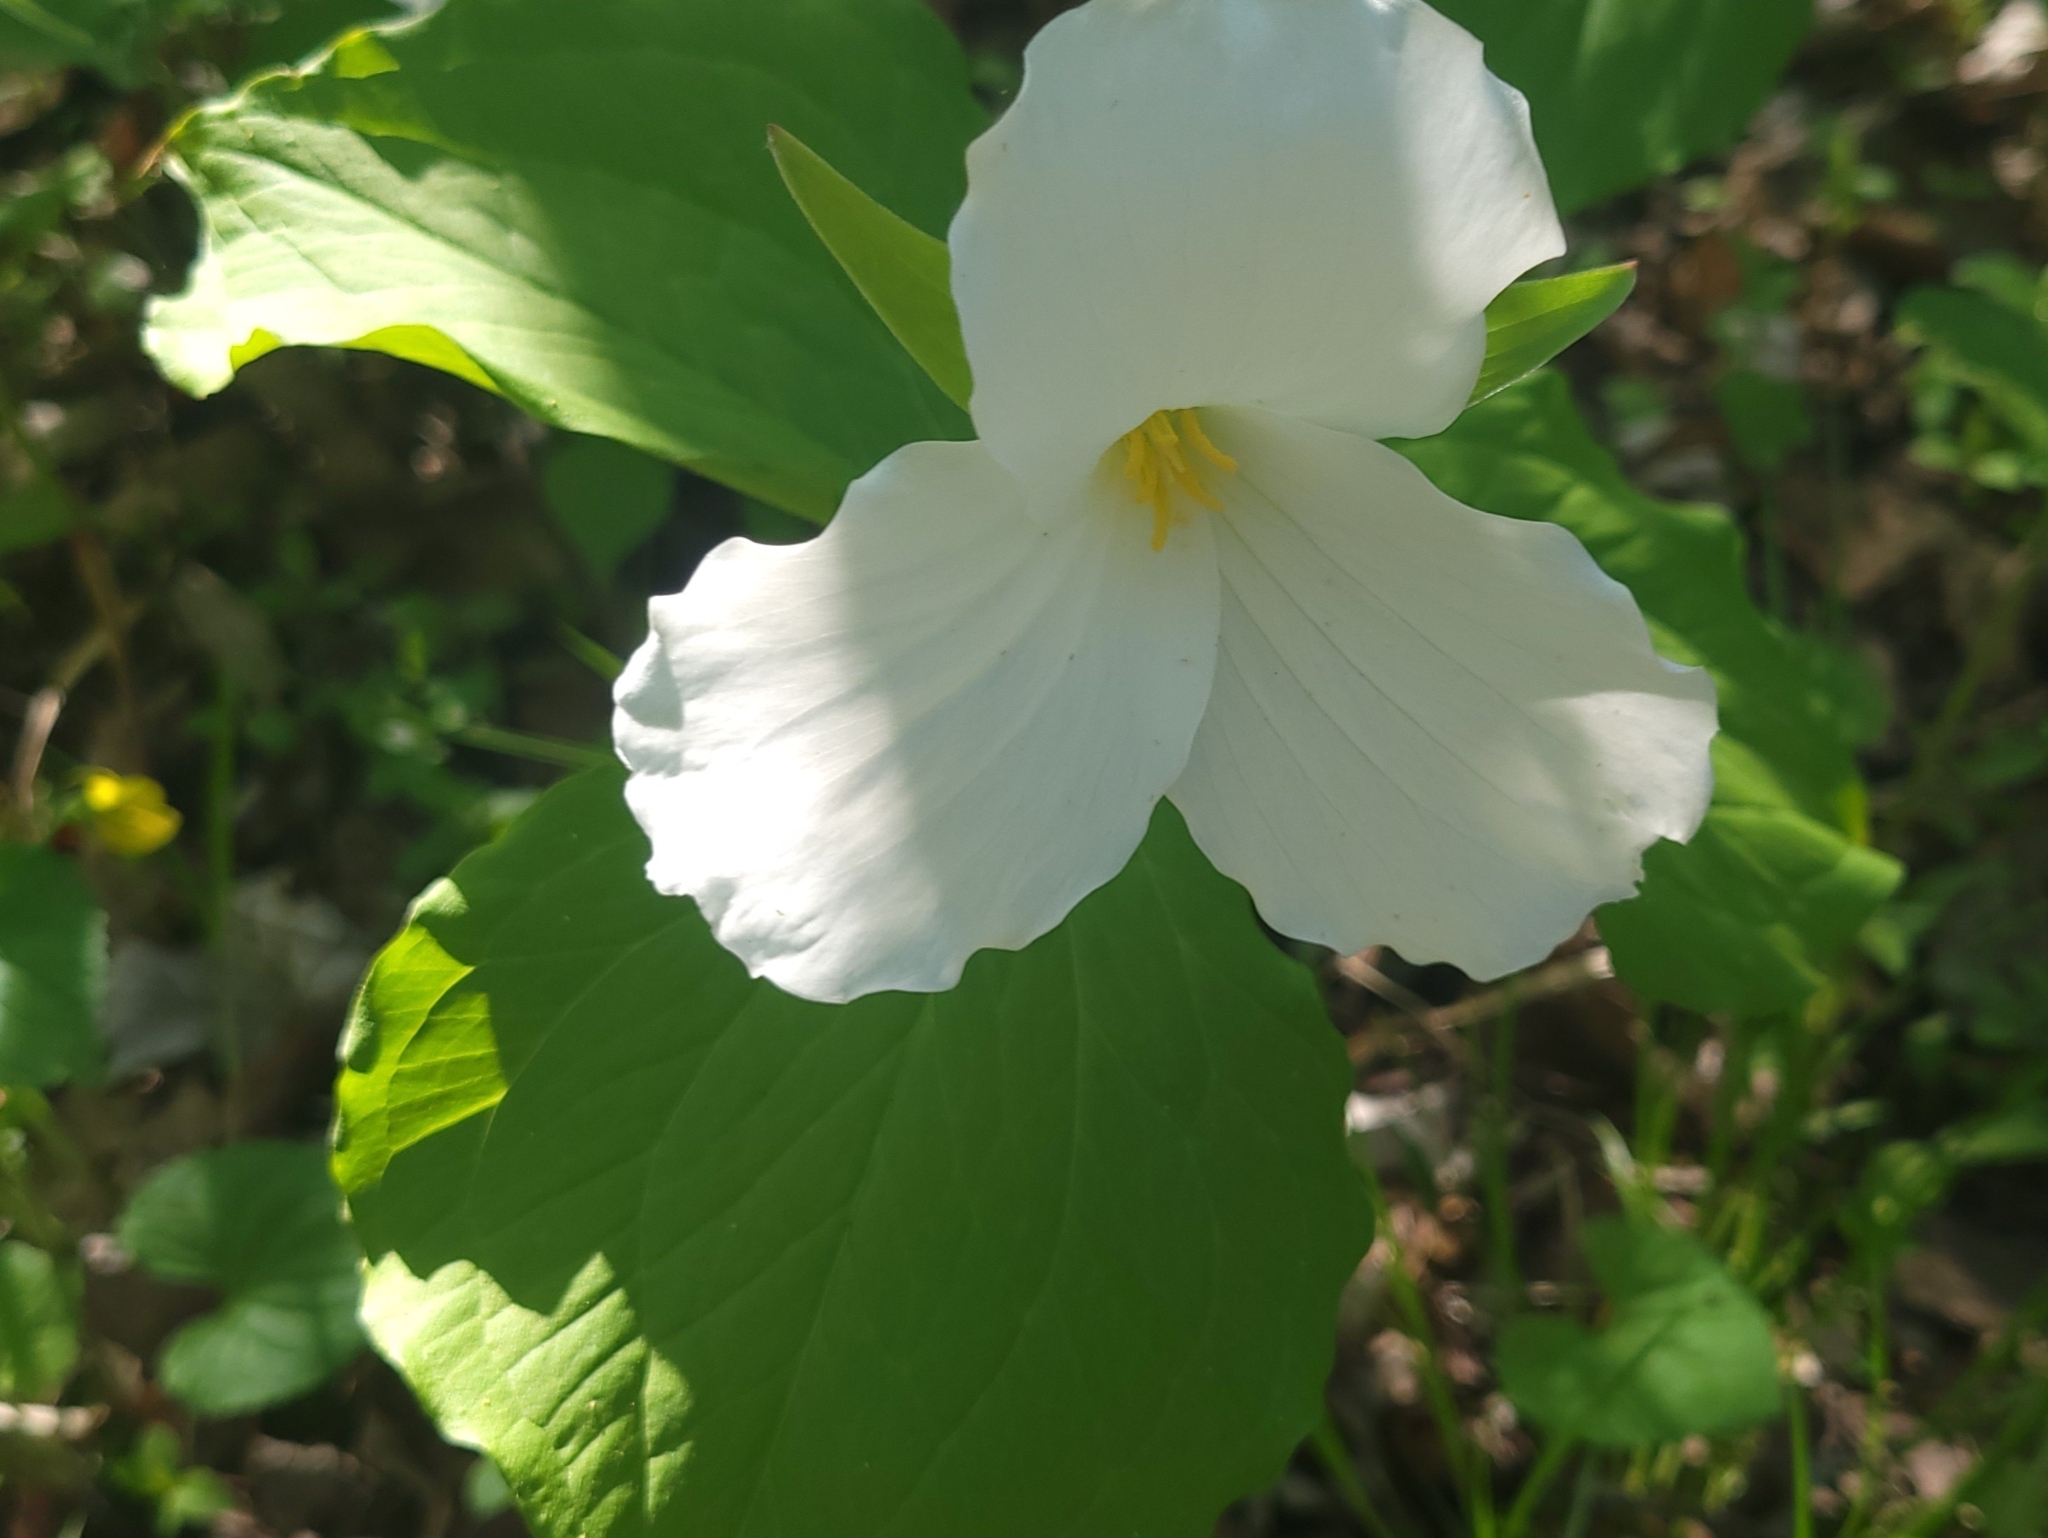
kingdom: Plantae
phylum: Tracheophyta
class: Liliopsida
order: Liliales
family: Melanthiaceae
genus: Trillium
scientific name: Trillium grandiflorum
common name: Great white trillium
